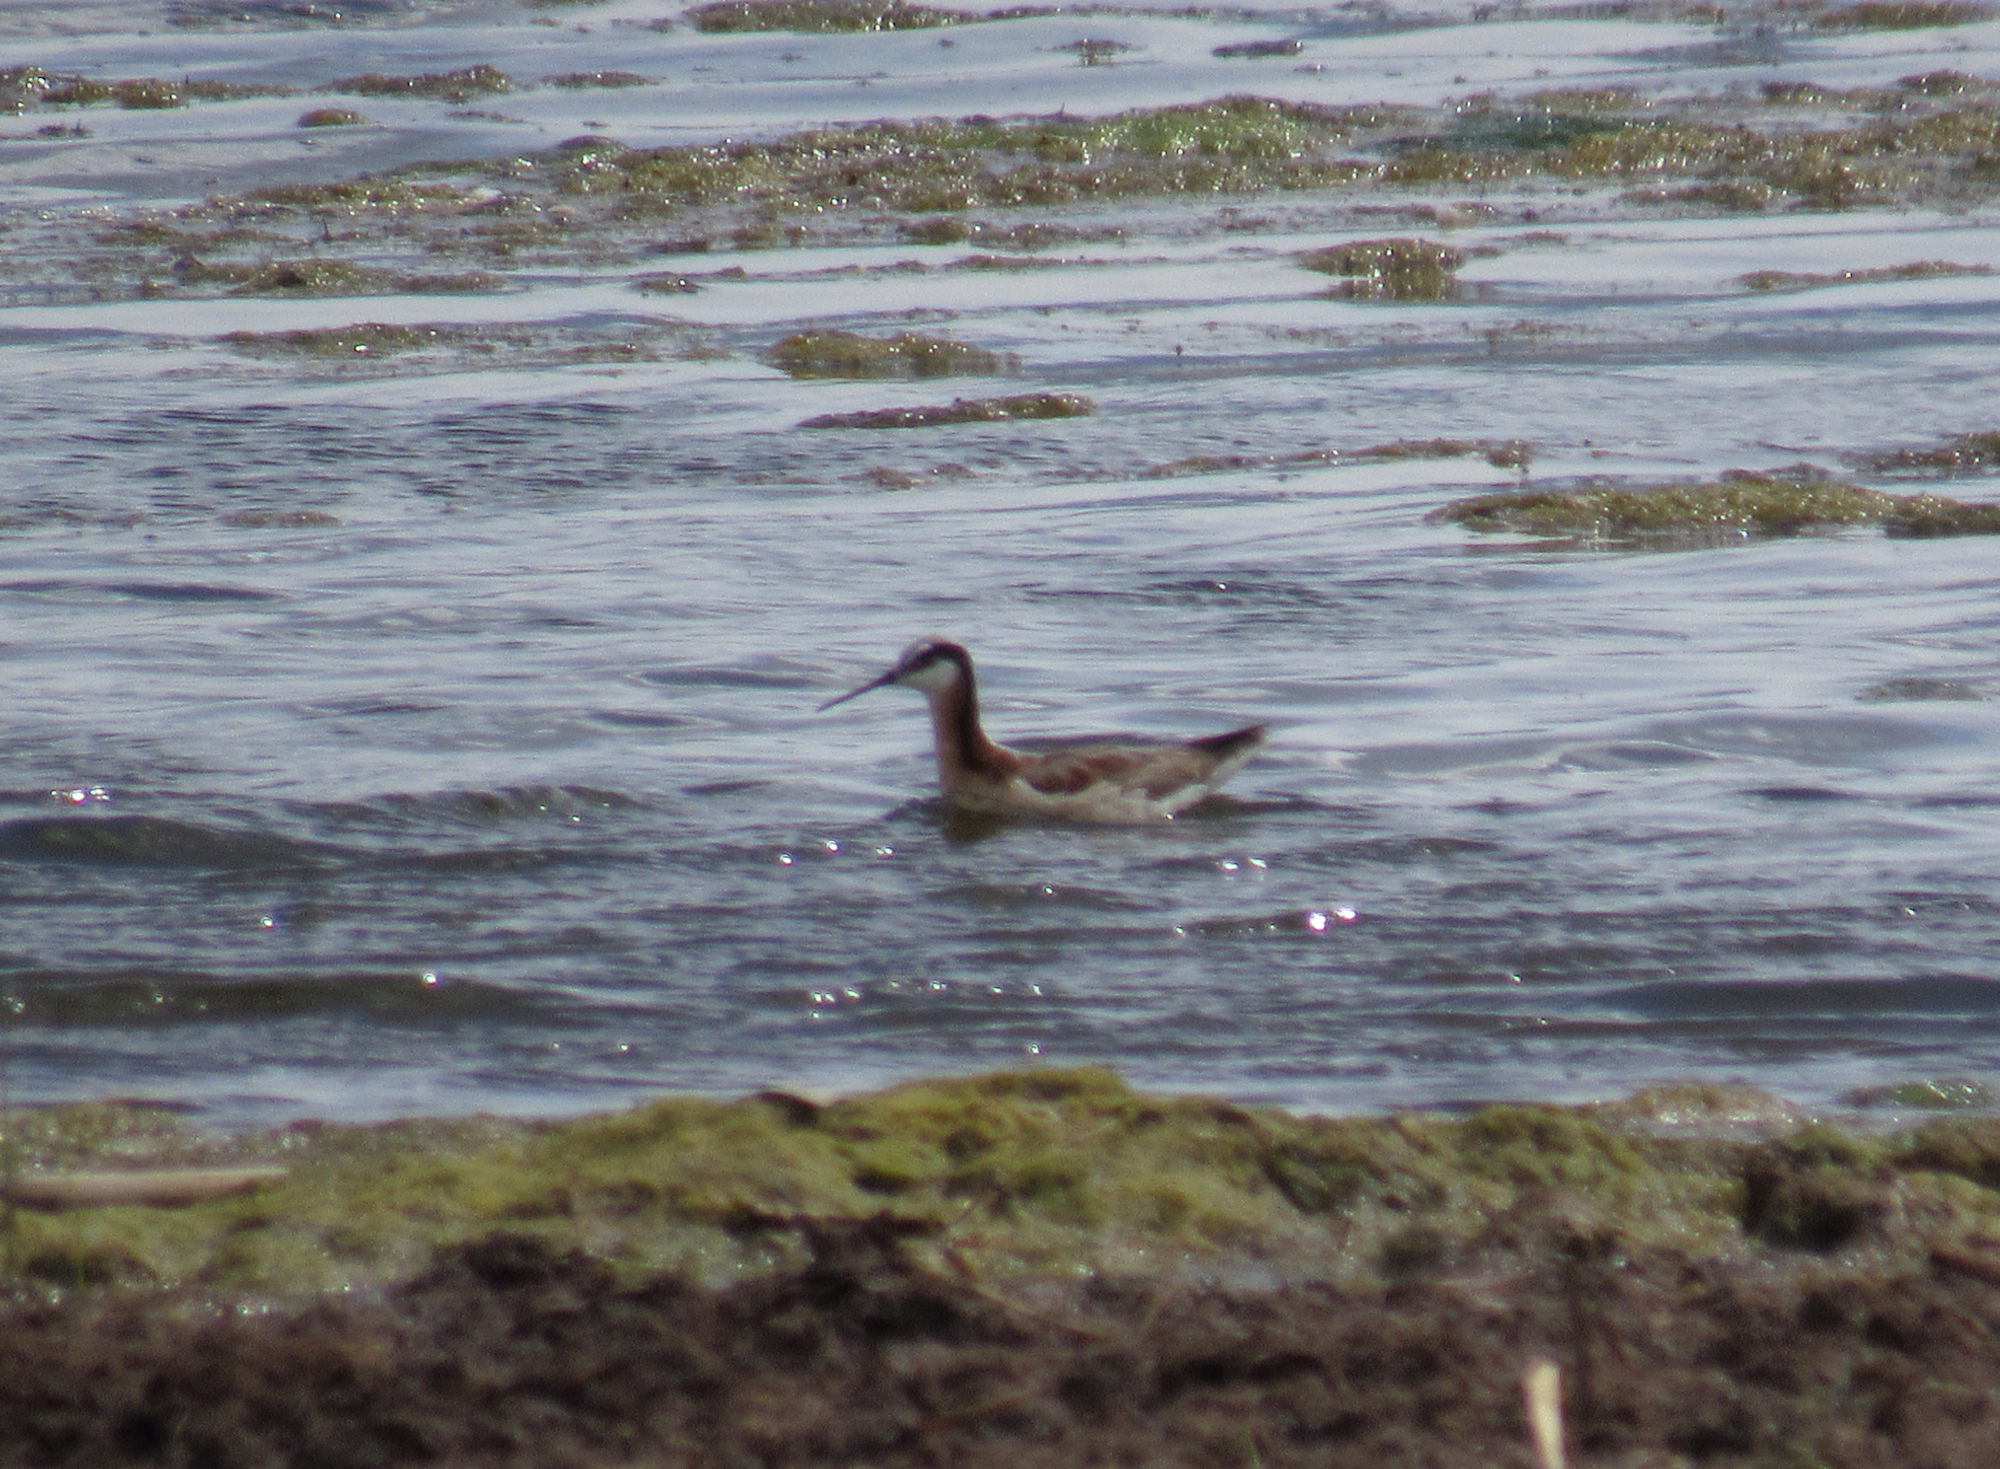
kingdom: Animalia
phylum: Chordata
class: Aves
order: Charadriiformes
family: Scolopacidae
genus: Phalaropus
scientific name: Phalaropus tricolor
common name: Wilson's phalarope
